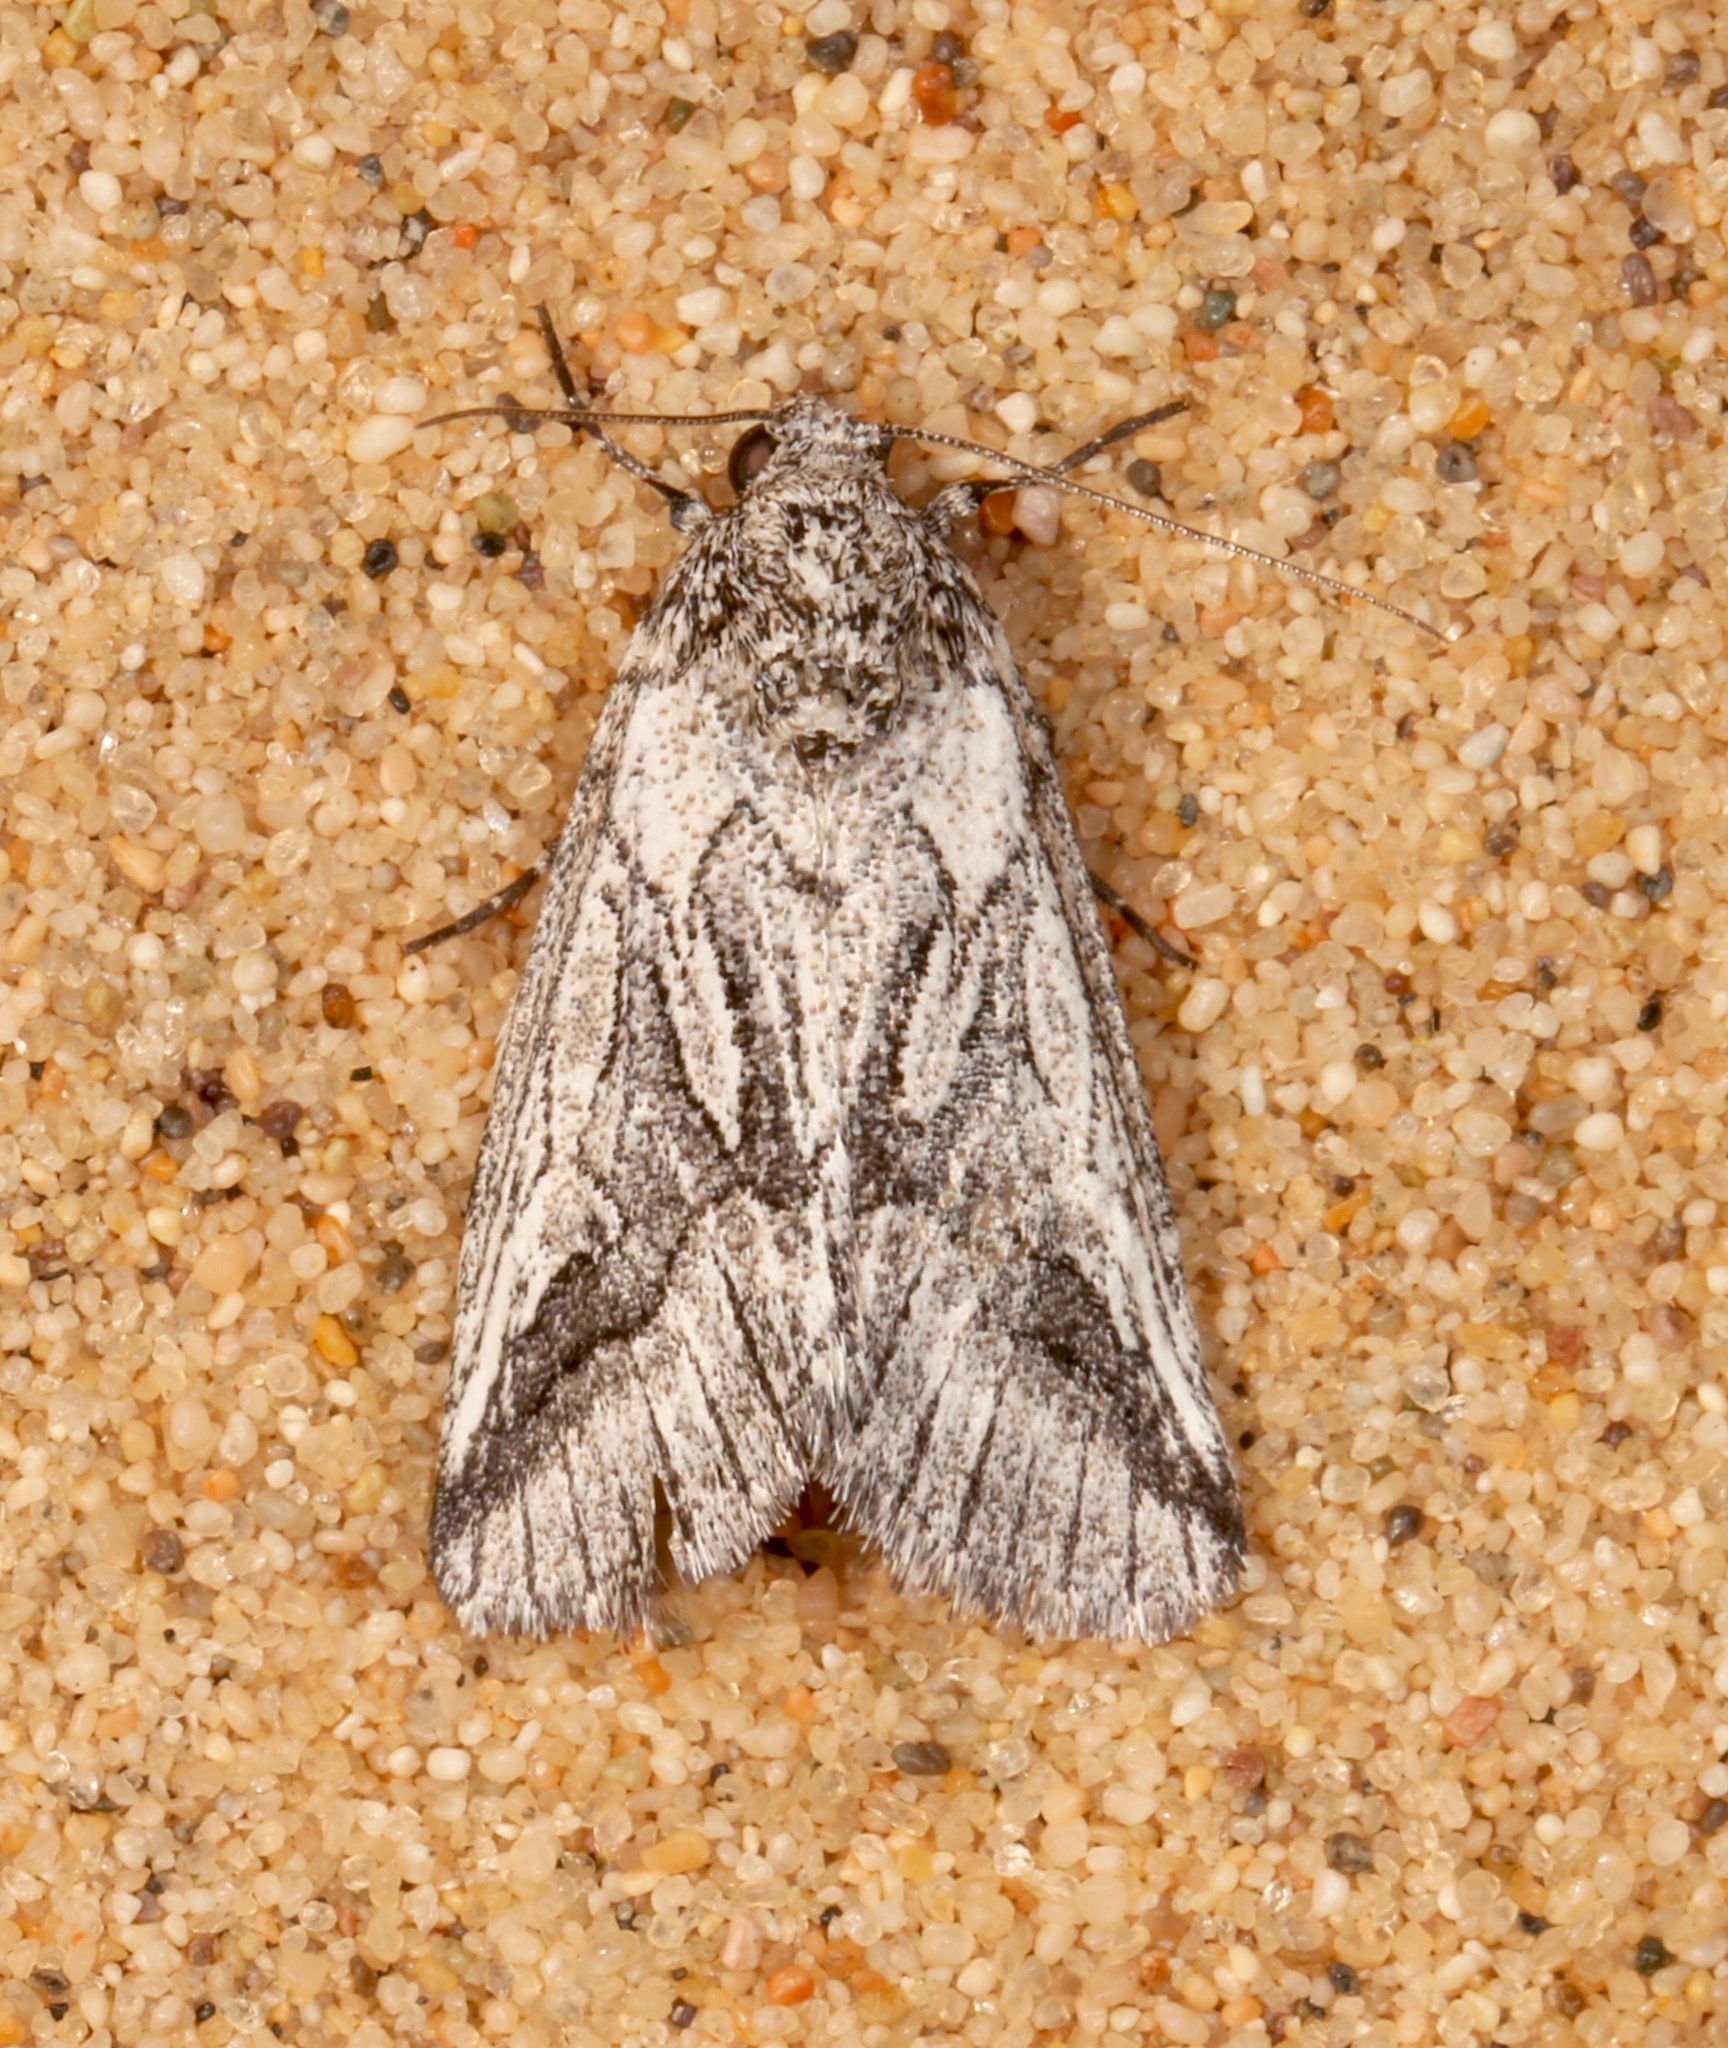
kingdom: Animalia
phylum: Arthropoda
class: Insecta
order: Lepidoptera
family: Noctuidae
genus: Oxycnemis
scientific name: Oxycnemis fusimacula
